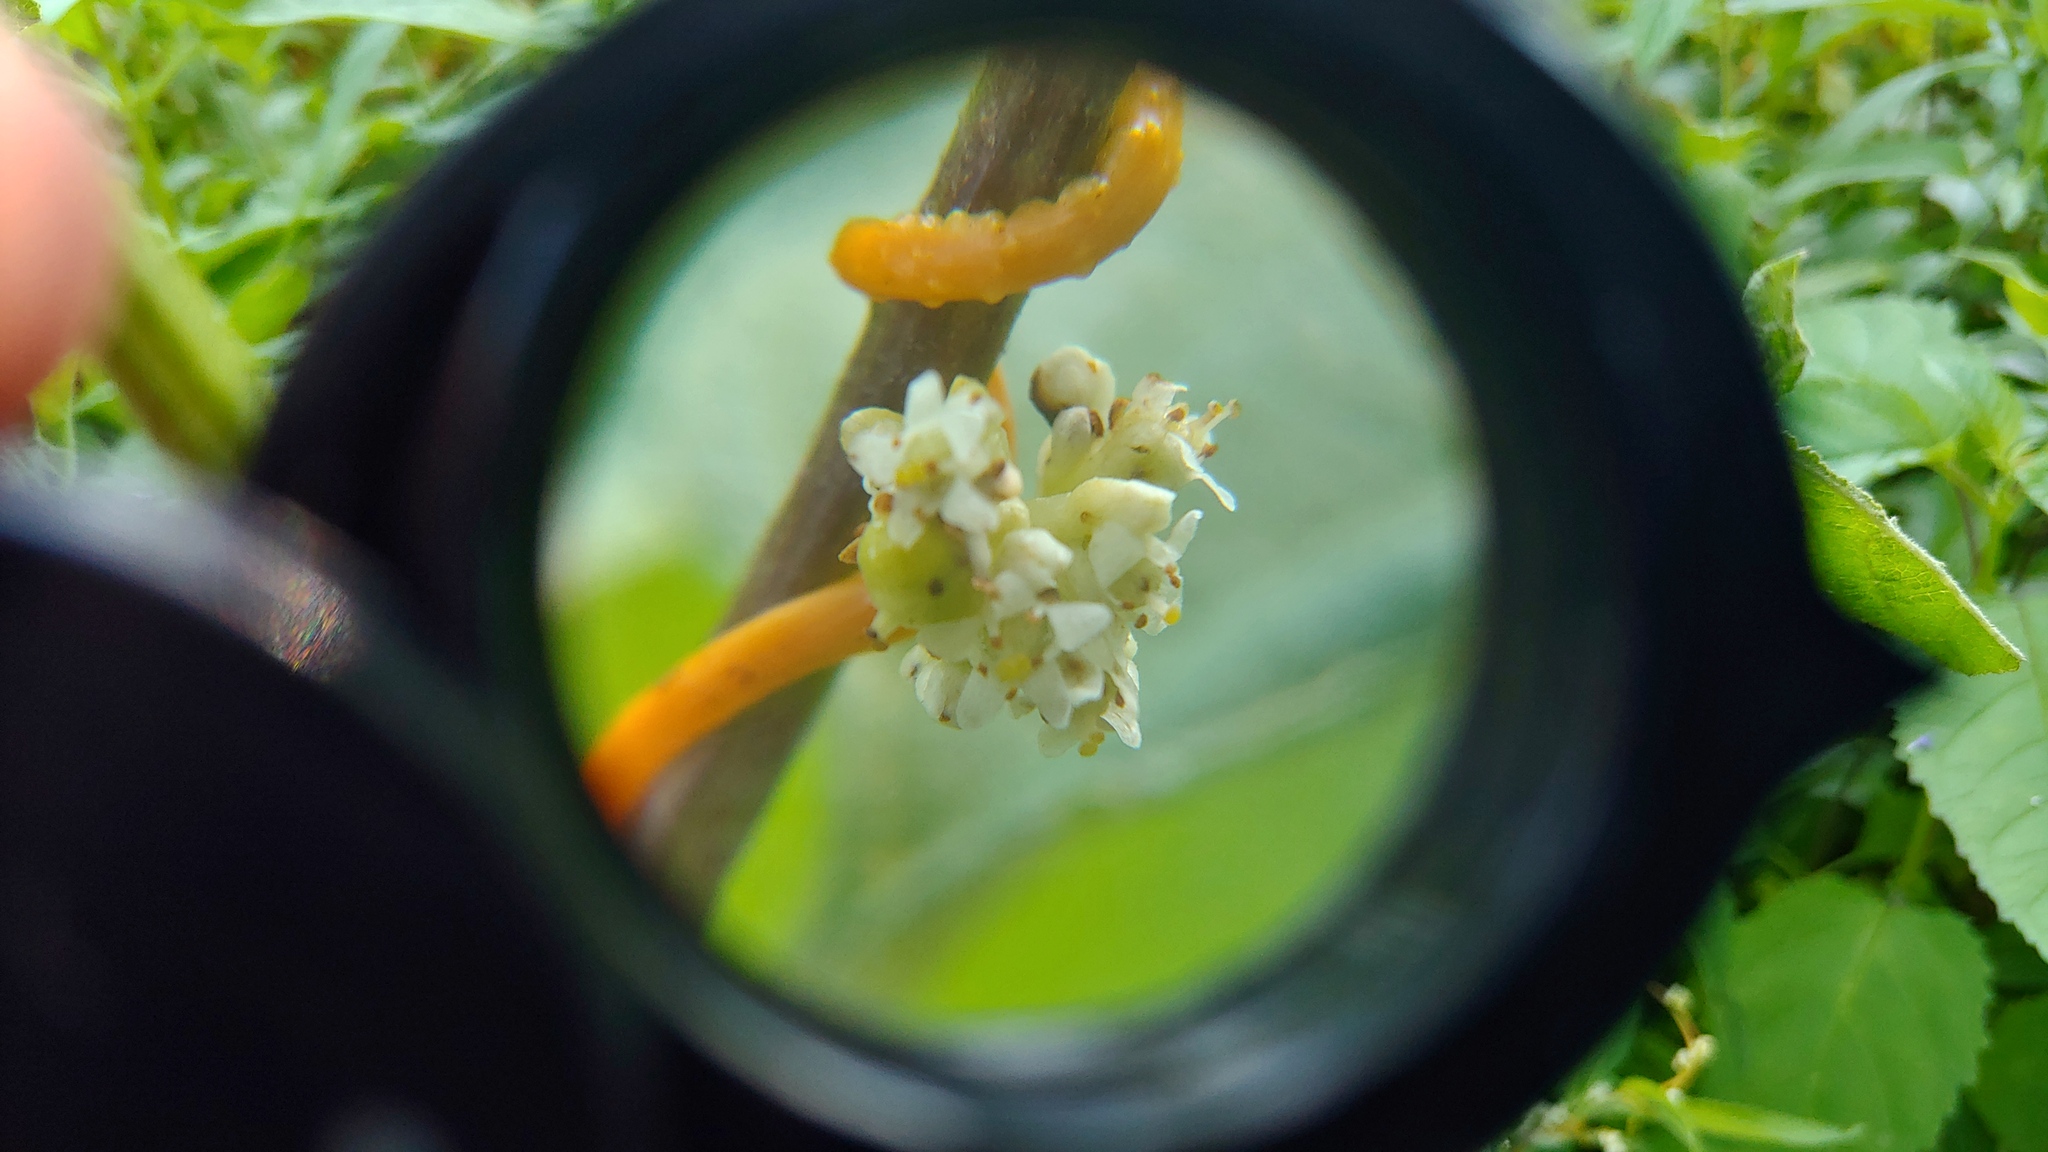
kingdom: Plantae
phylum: Tracheophyta
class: Magnoliopsida
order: Solanales
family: Convolvulaceae
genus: Cuscuta
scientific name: Cuscuta gronovii
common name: Common dodder
